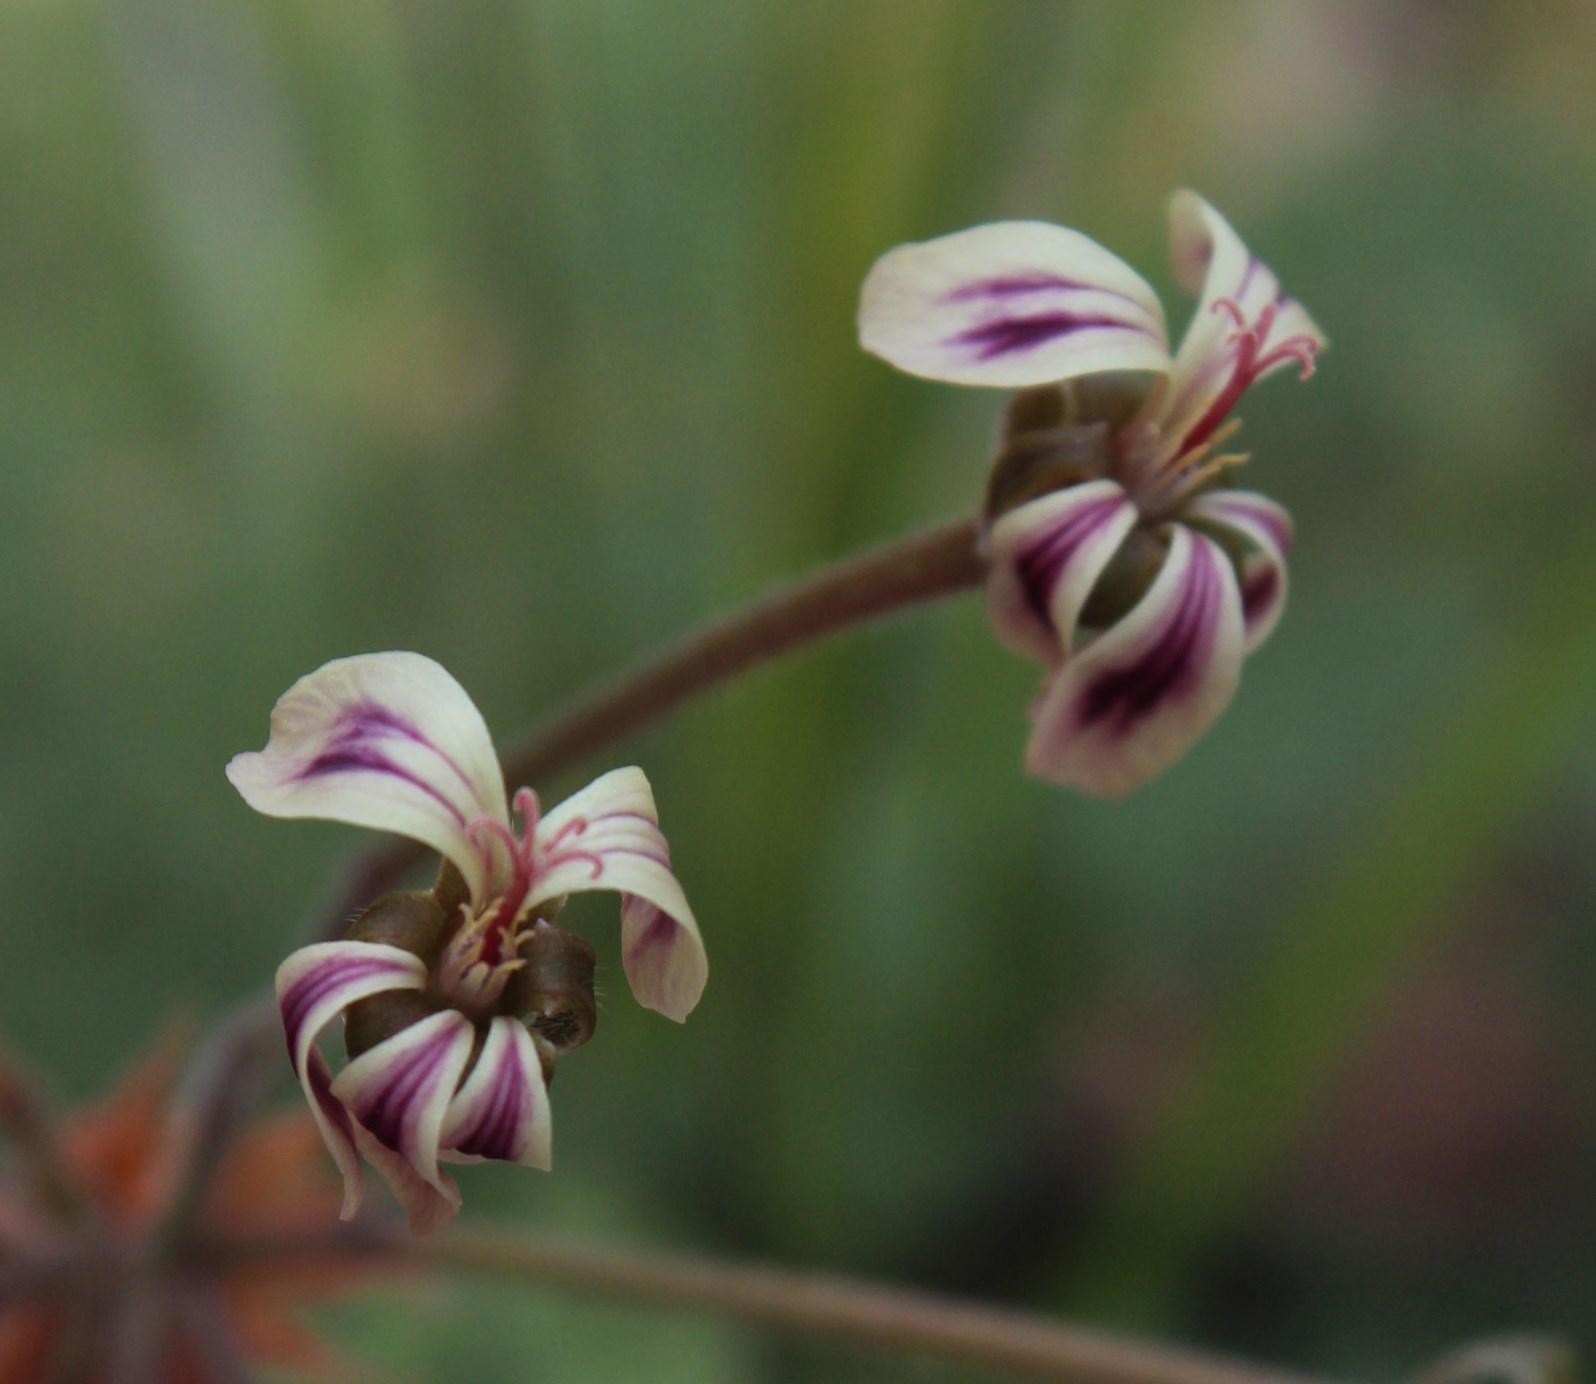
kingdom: Plantae
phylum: Tracheophyta
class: Magnoliopsida
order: Geraniales
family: Geraniaceae
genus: Pelargonium
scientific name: Pelargonium triste
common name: Night-scent pelargonium
